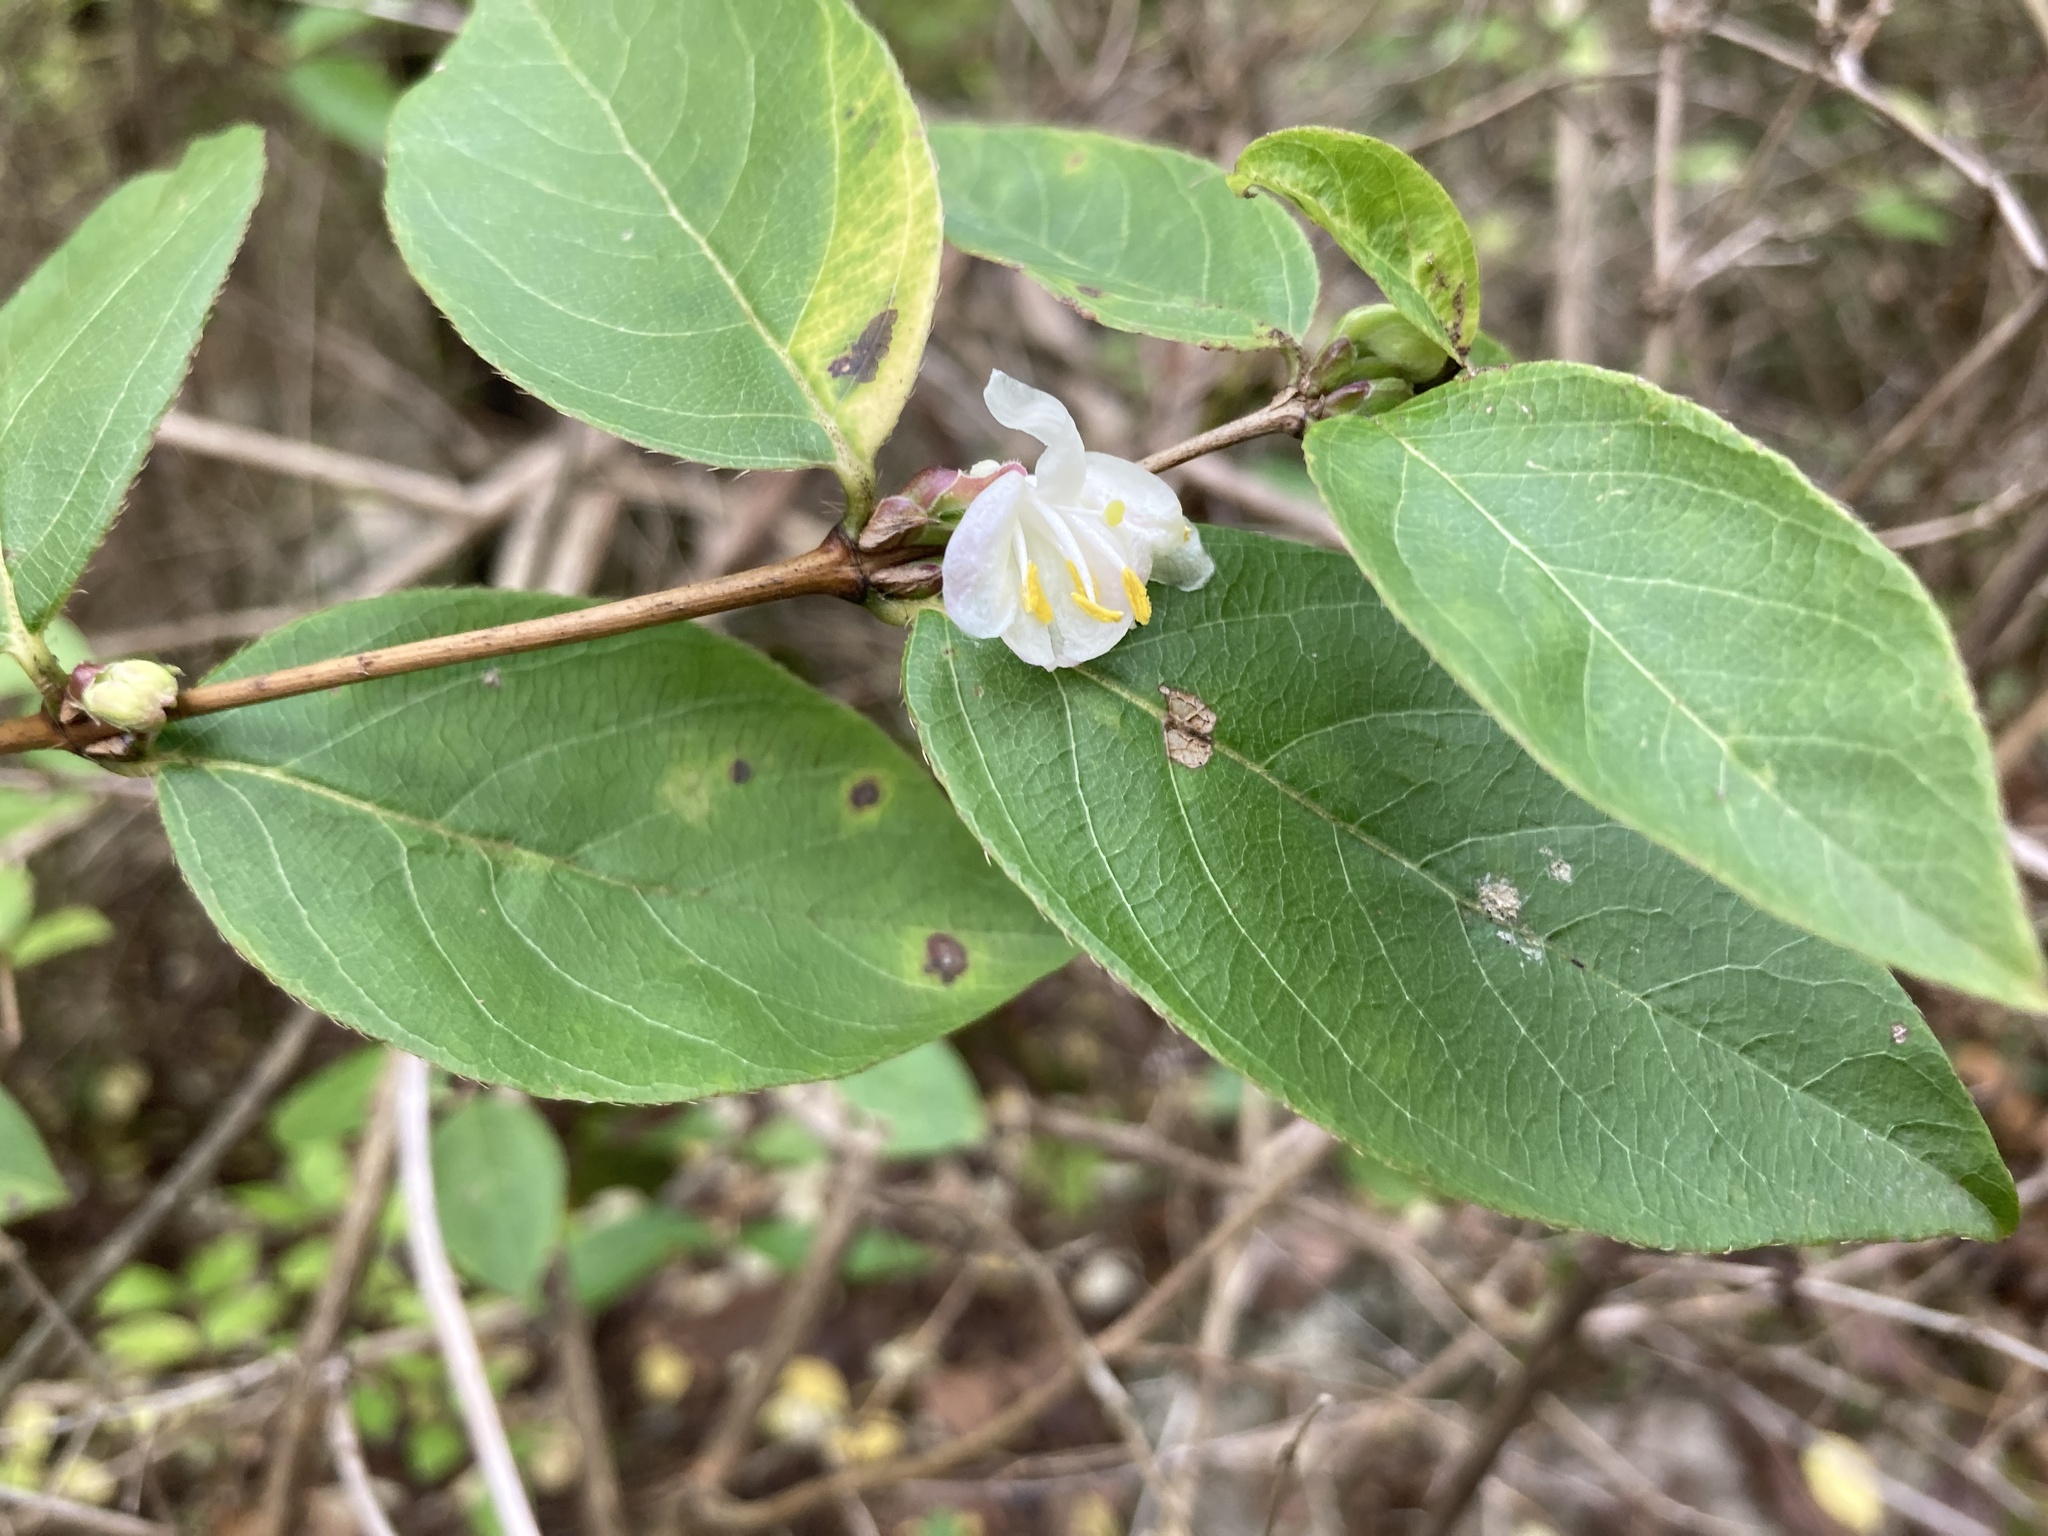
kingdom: Plantae
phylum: Tracheophyta
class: Magnoliopsida
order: Dipsacales
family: Caprifoliaceae
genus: Lonicera
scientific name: Lonicera fragrantissima
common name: Fragrant honeysuckle
